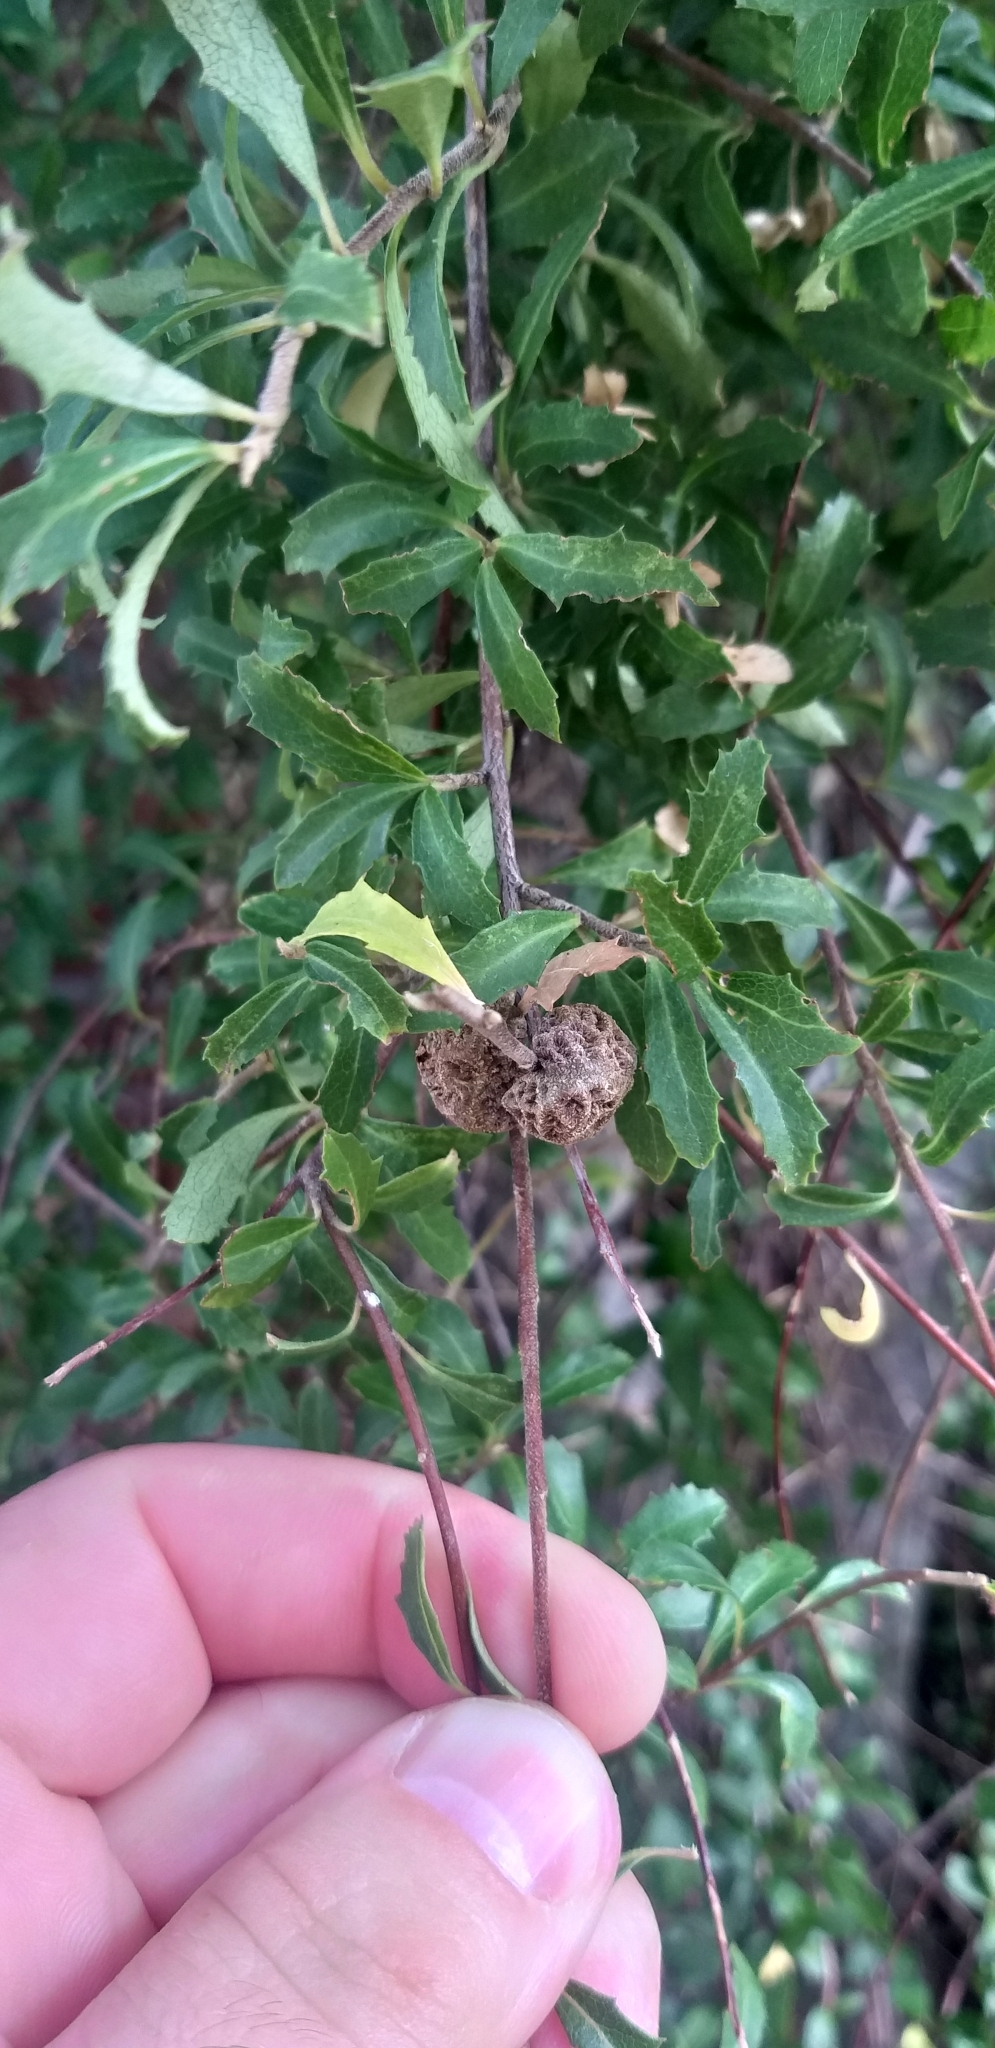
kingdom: Plantae
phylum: Tracheophyta
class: Magnoliopsida
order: Malvales
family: Malvaceae
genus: Hoheria
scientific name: Hoheria angustifolia
